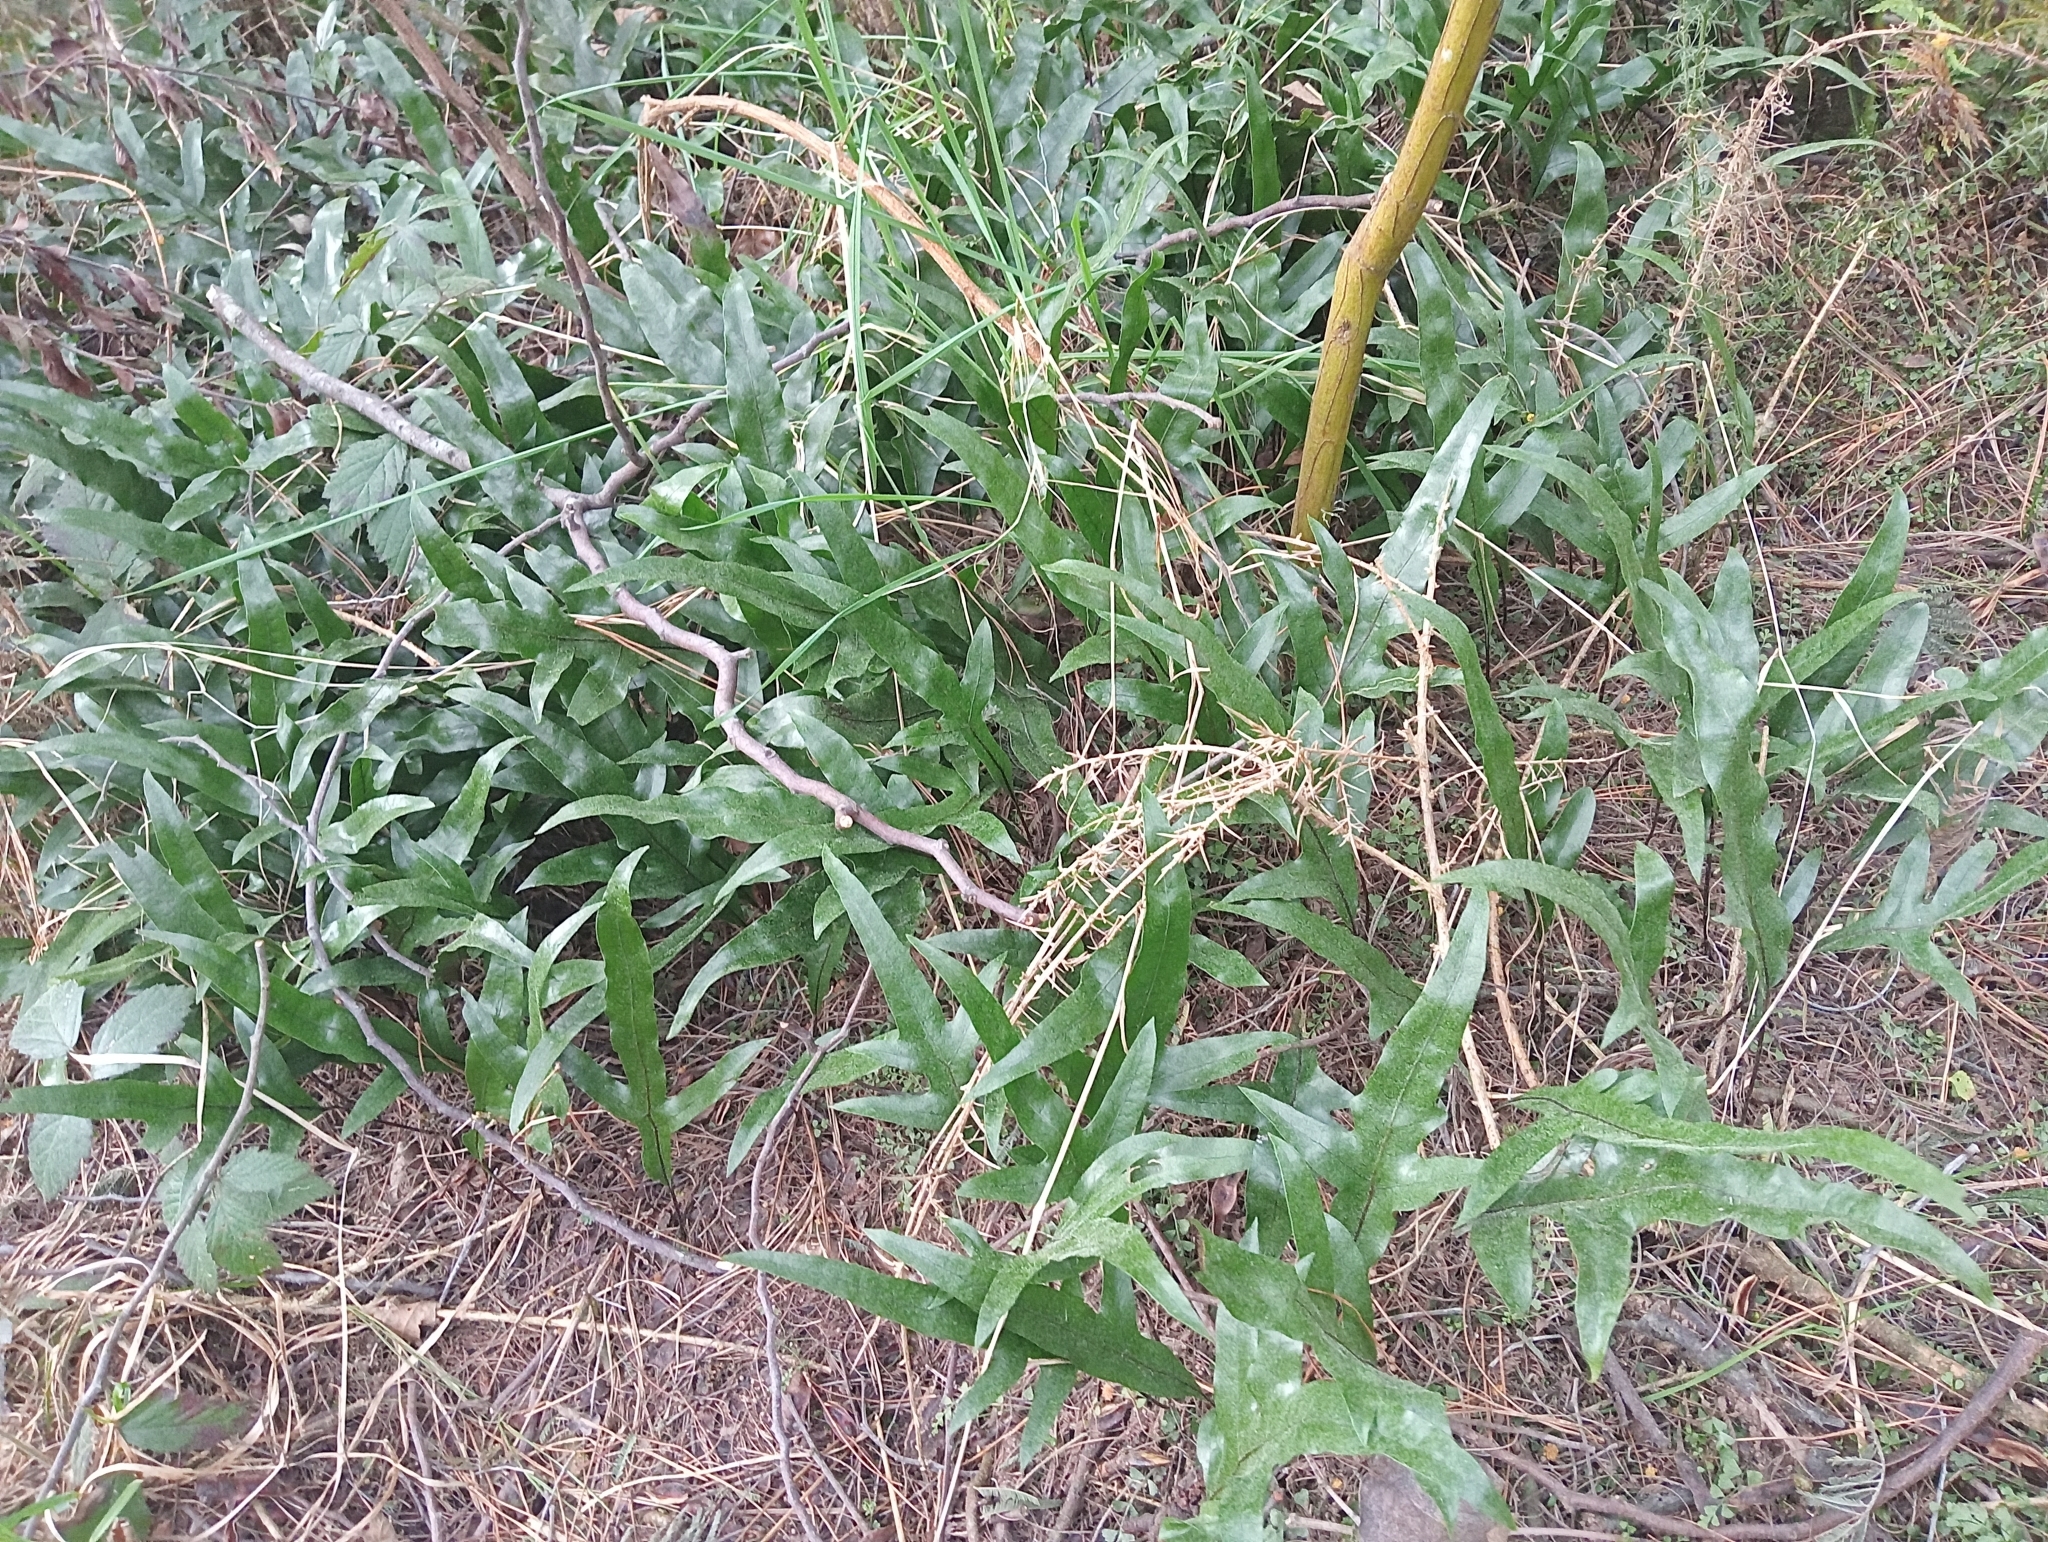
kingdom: Plantae
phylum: Tracheophyta
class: Polypodiopsida
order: Polypodiales
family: Polypodiaceae
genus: Lecanopteris
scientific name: Lecanopteris pustulata
